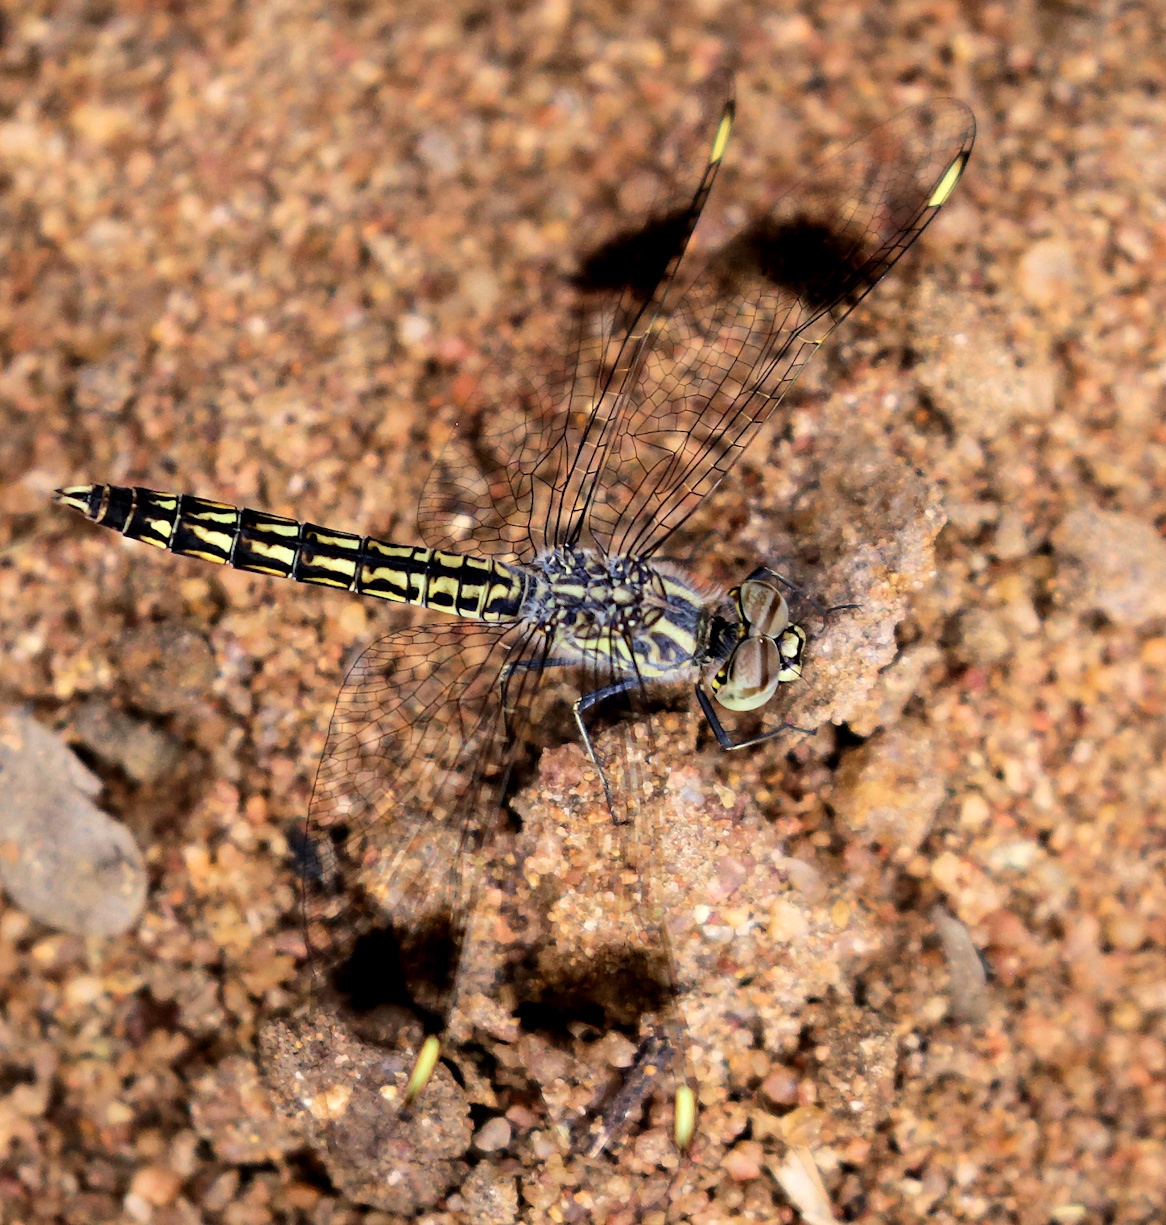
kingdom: Animalia
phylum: Arthropoda
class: Insecta
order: Odonata
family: Libellulidae
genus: Brachythemis
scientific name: Brachythemis leucosticta
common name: Banded groundling
